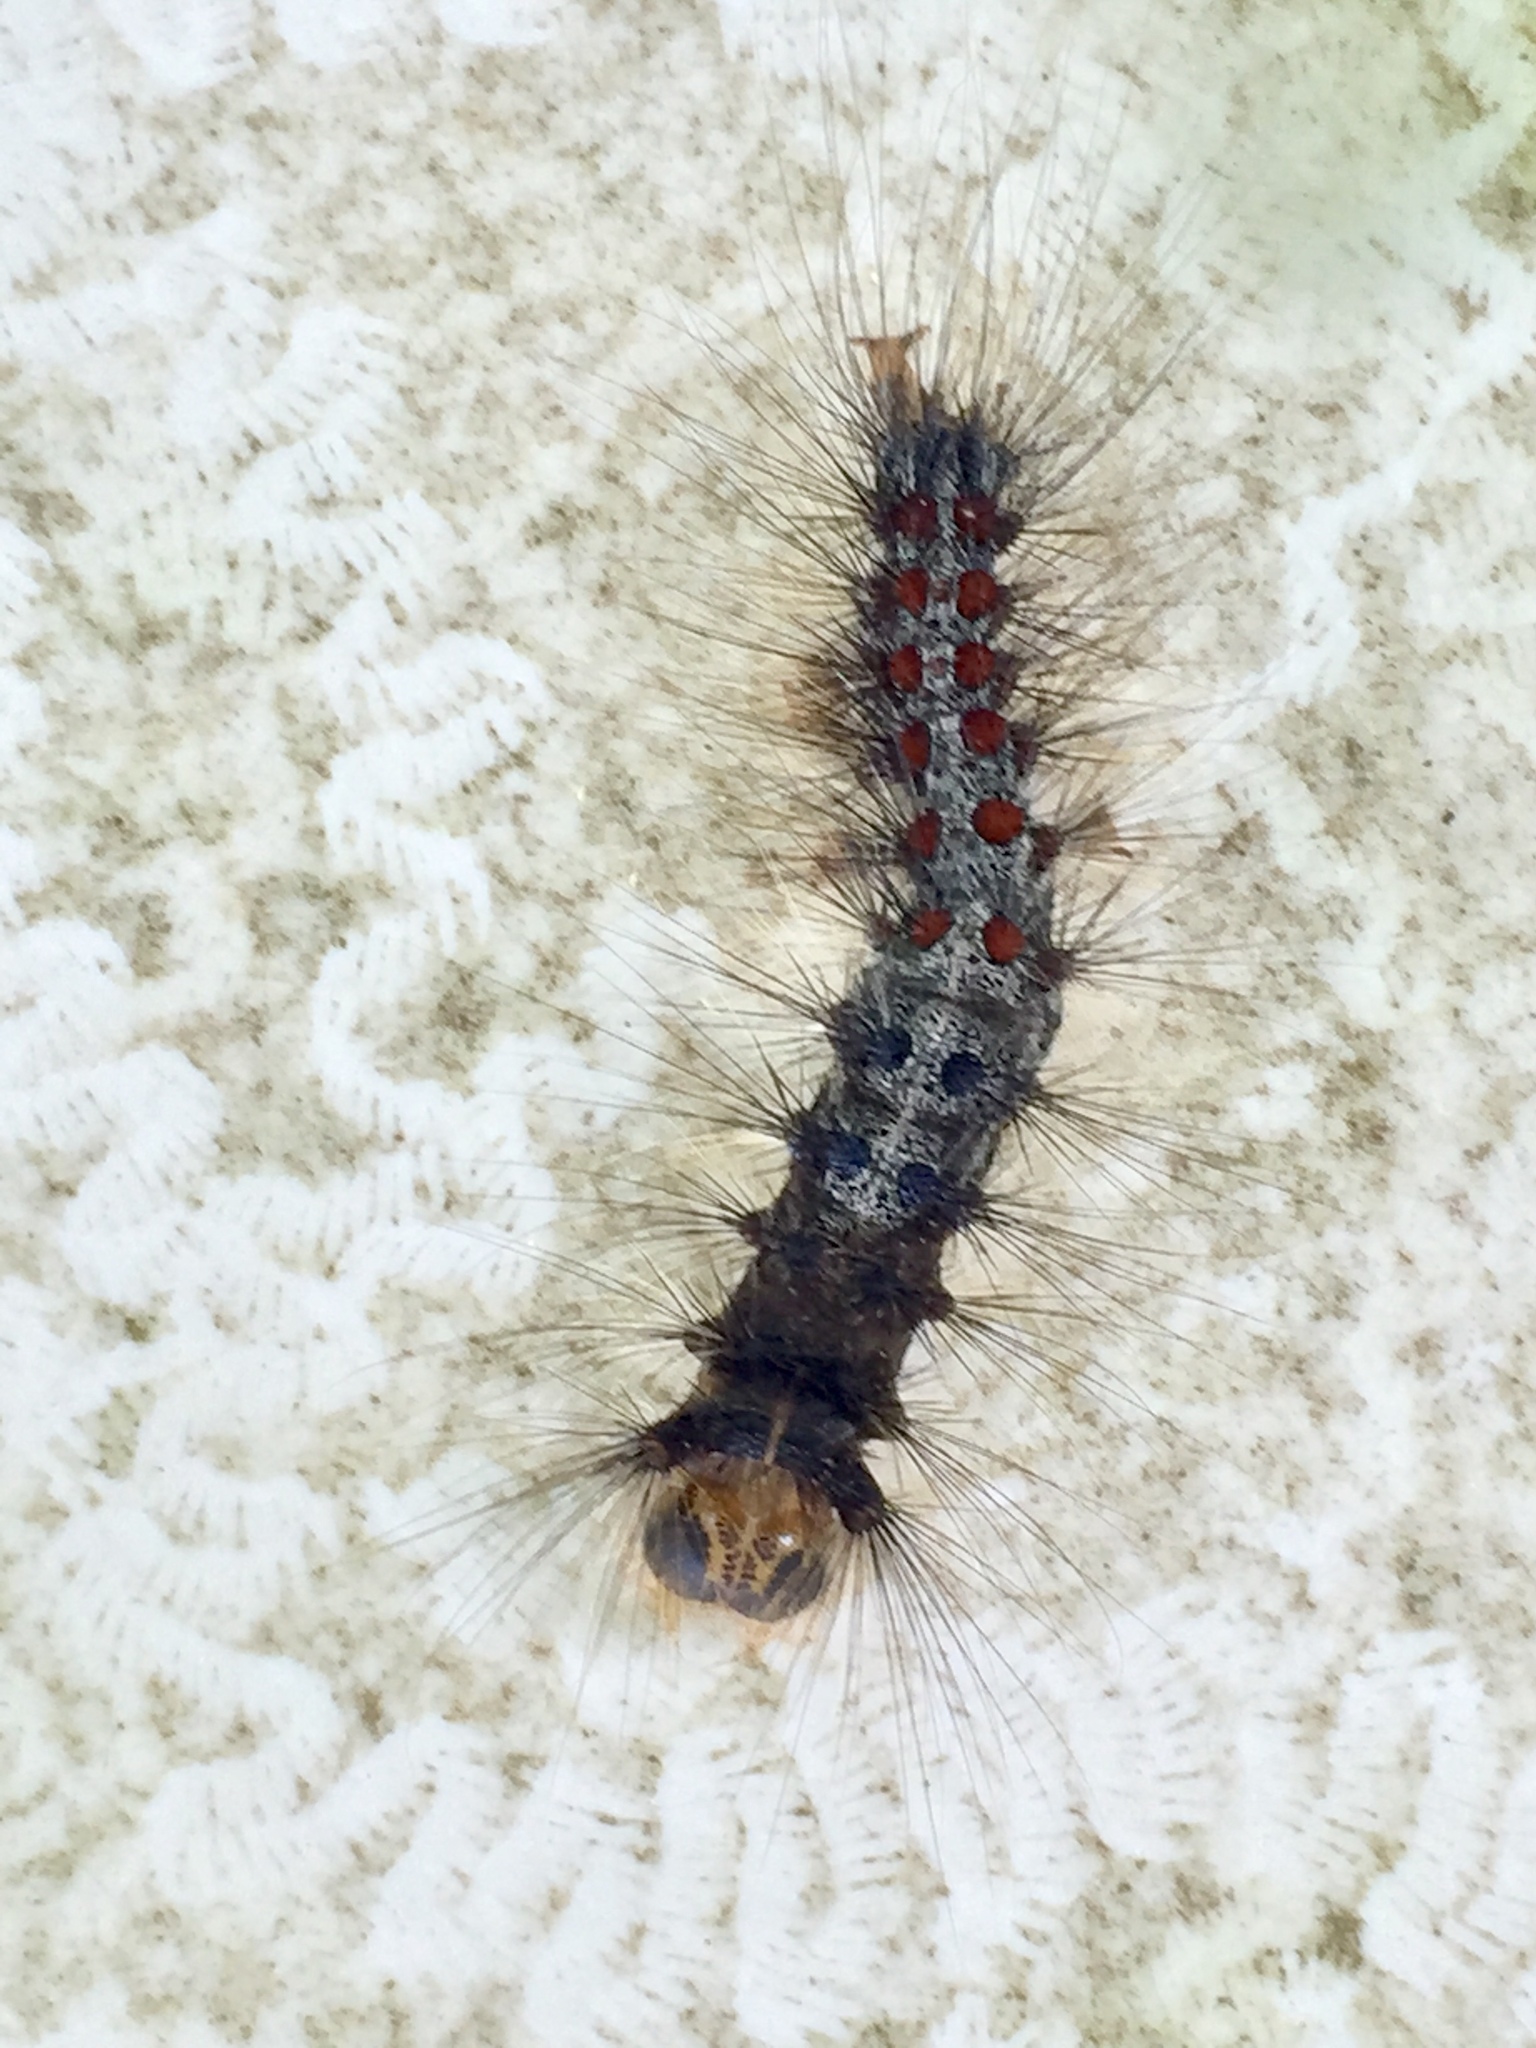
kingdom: Animalia
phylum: Arthropoda
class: Insecta
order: Lepidoptera
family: Erebidae
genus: Lymantria
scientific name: Lymantria dispar
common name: Gypsy moth
